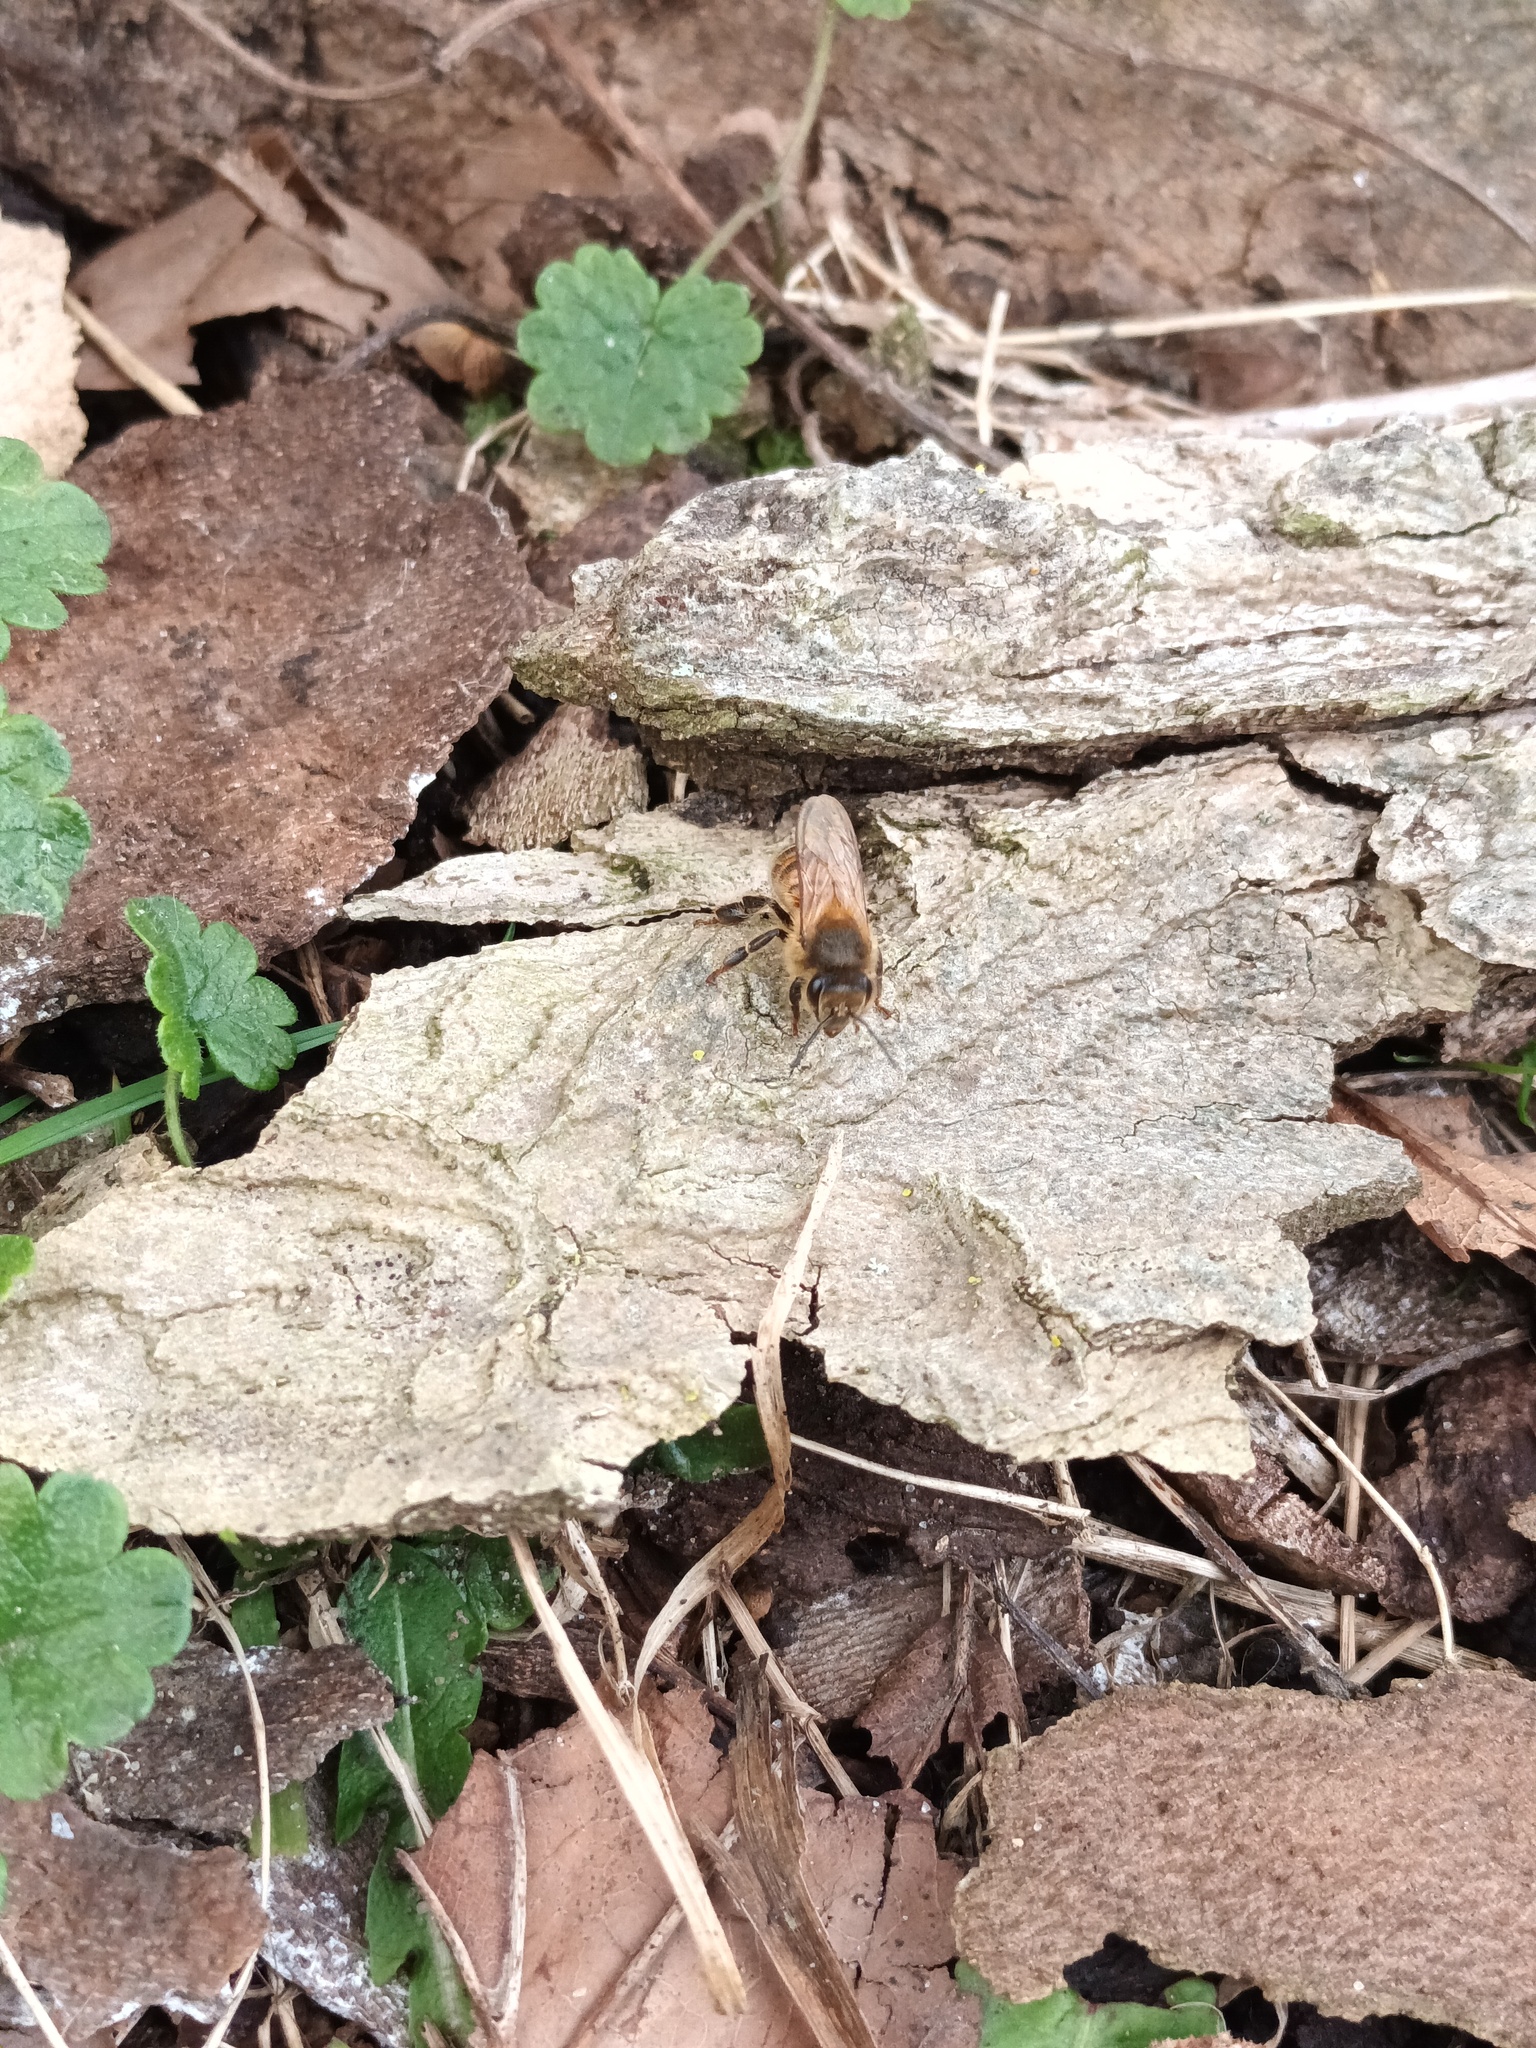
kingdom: Animalia
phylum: Arthropoda
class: Insecta
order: Hymenoptera
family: Apidae
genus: Apis
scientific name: Apis mellifera
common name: Honey bee
